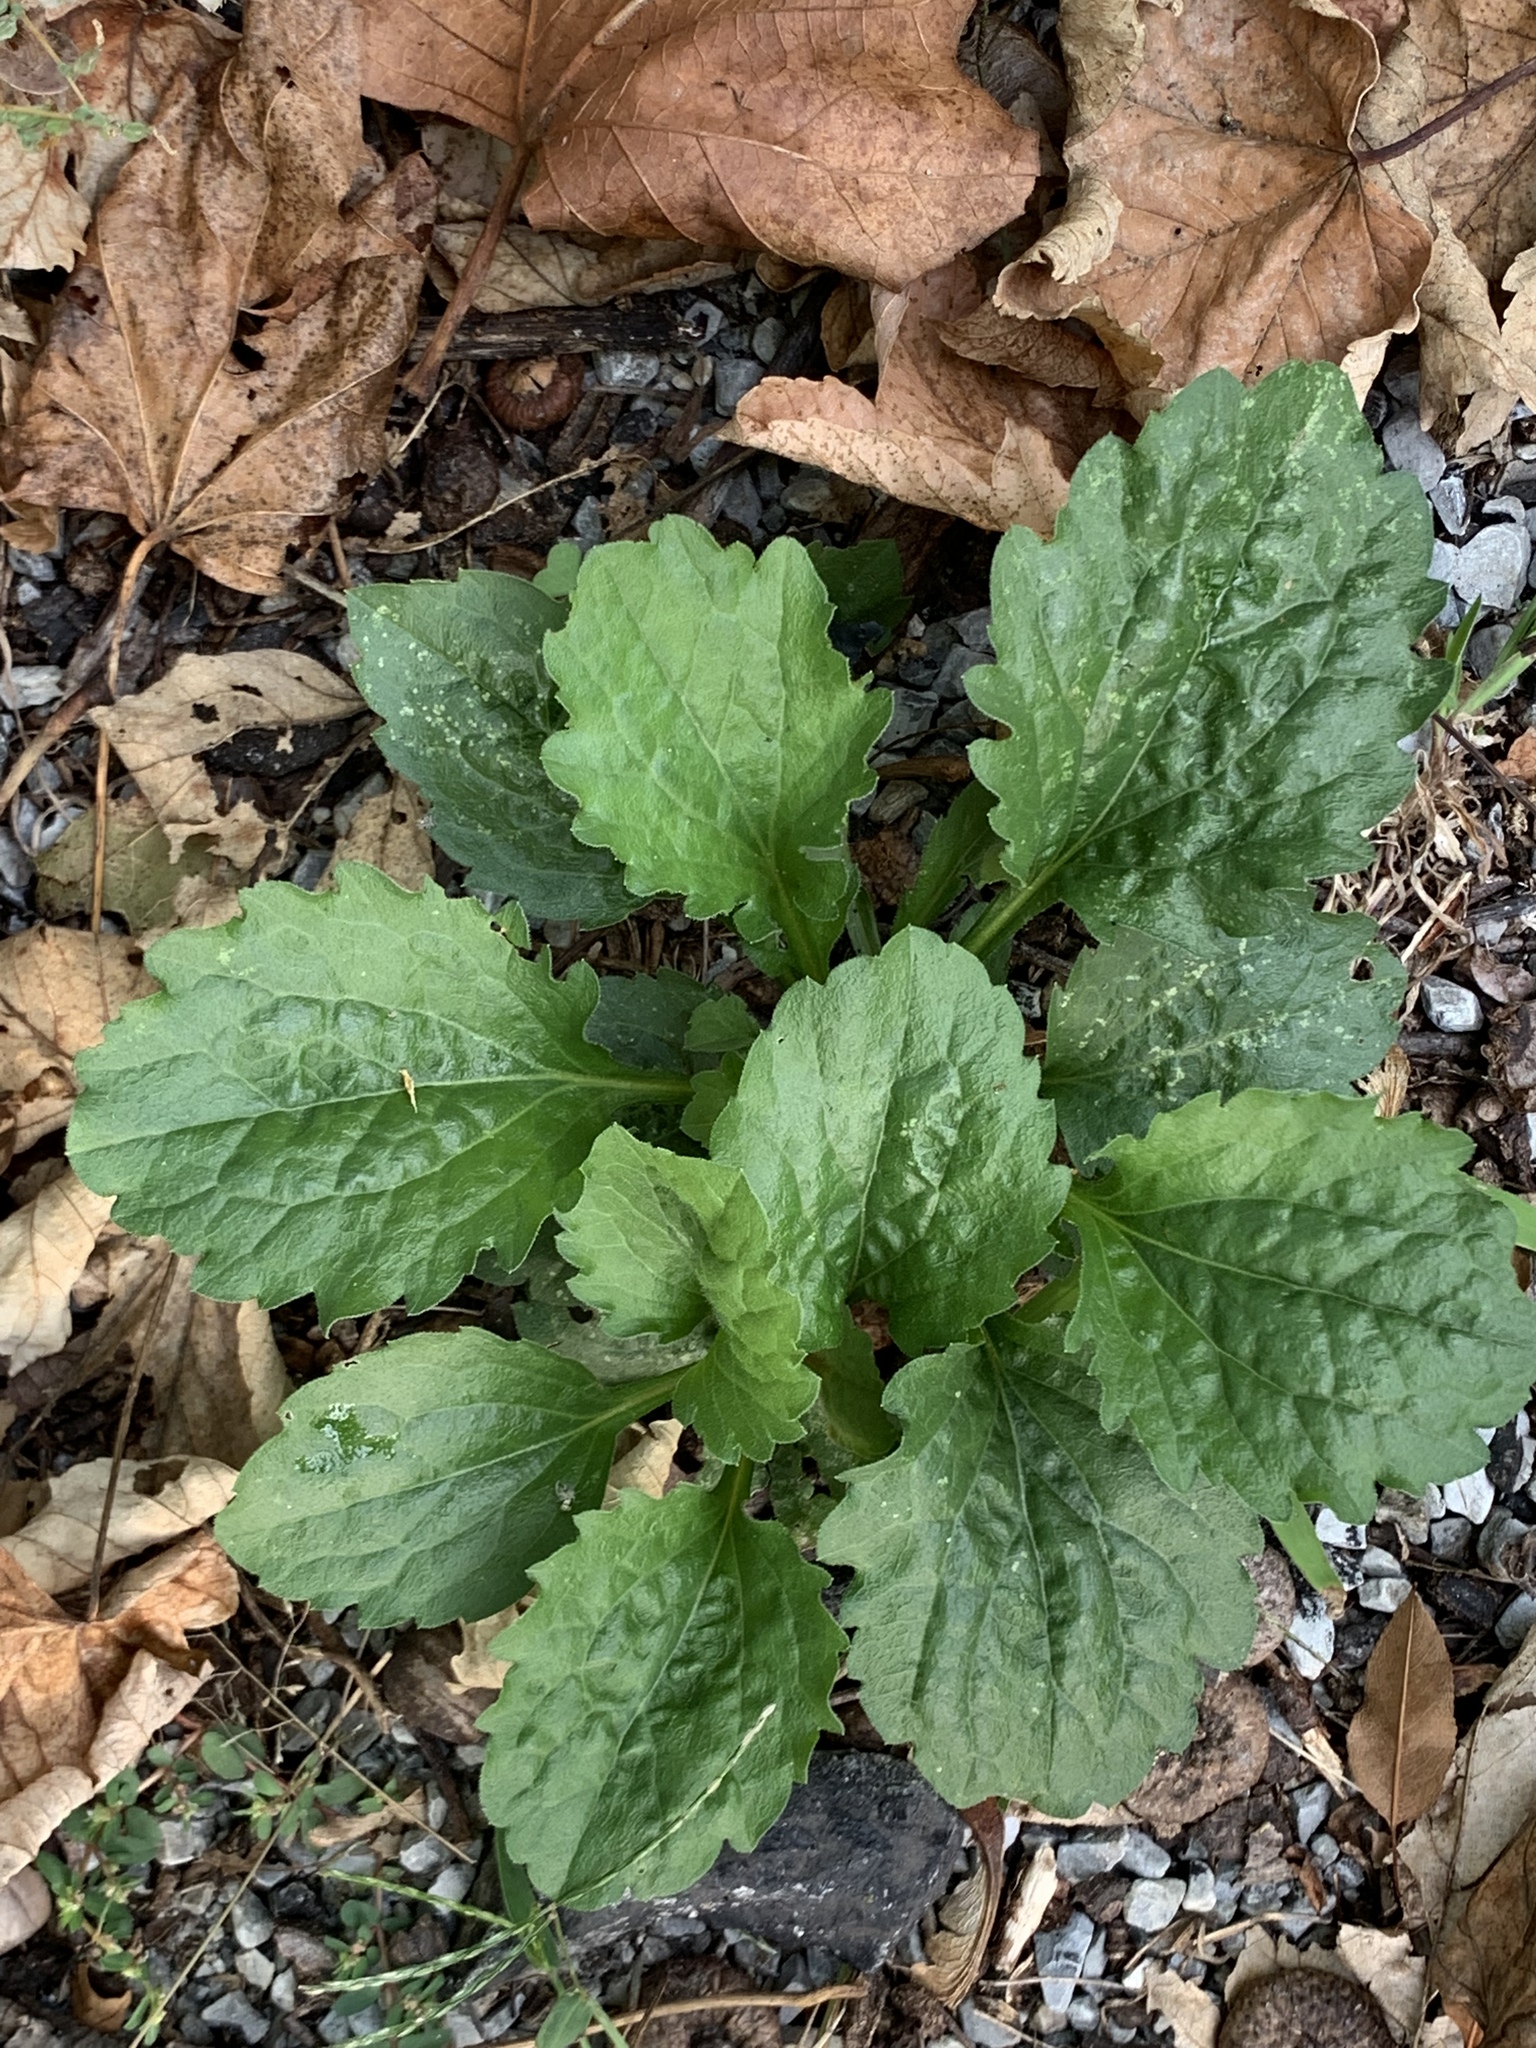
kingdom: Plantae
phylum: Tracheophyta
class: Magnoliopsida
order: Asterales
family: Asteraceae
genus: Erigeron
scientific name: Erigeron annuus
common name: Tall fleabane
